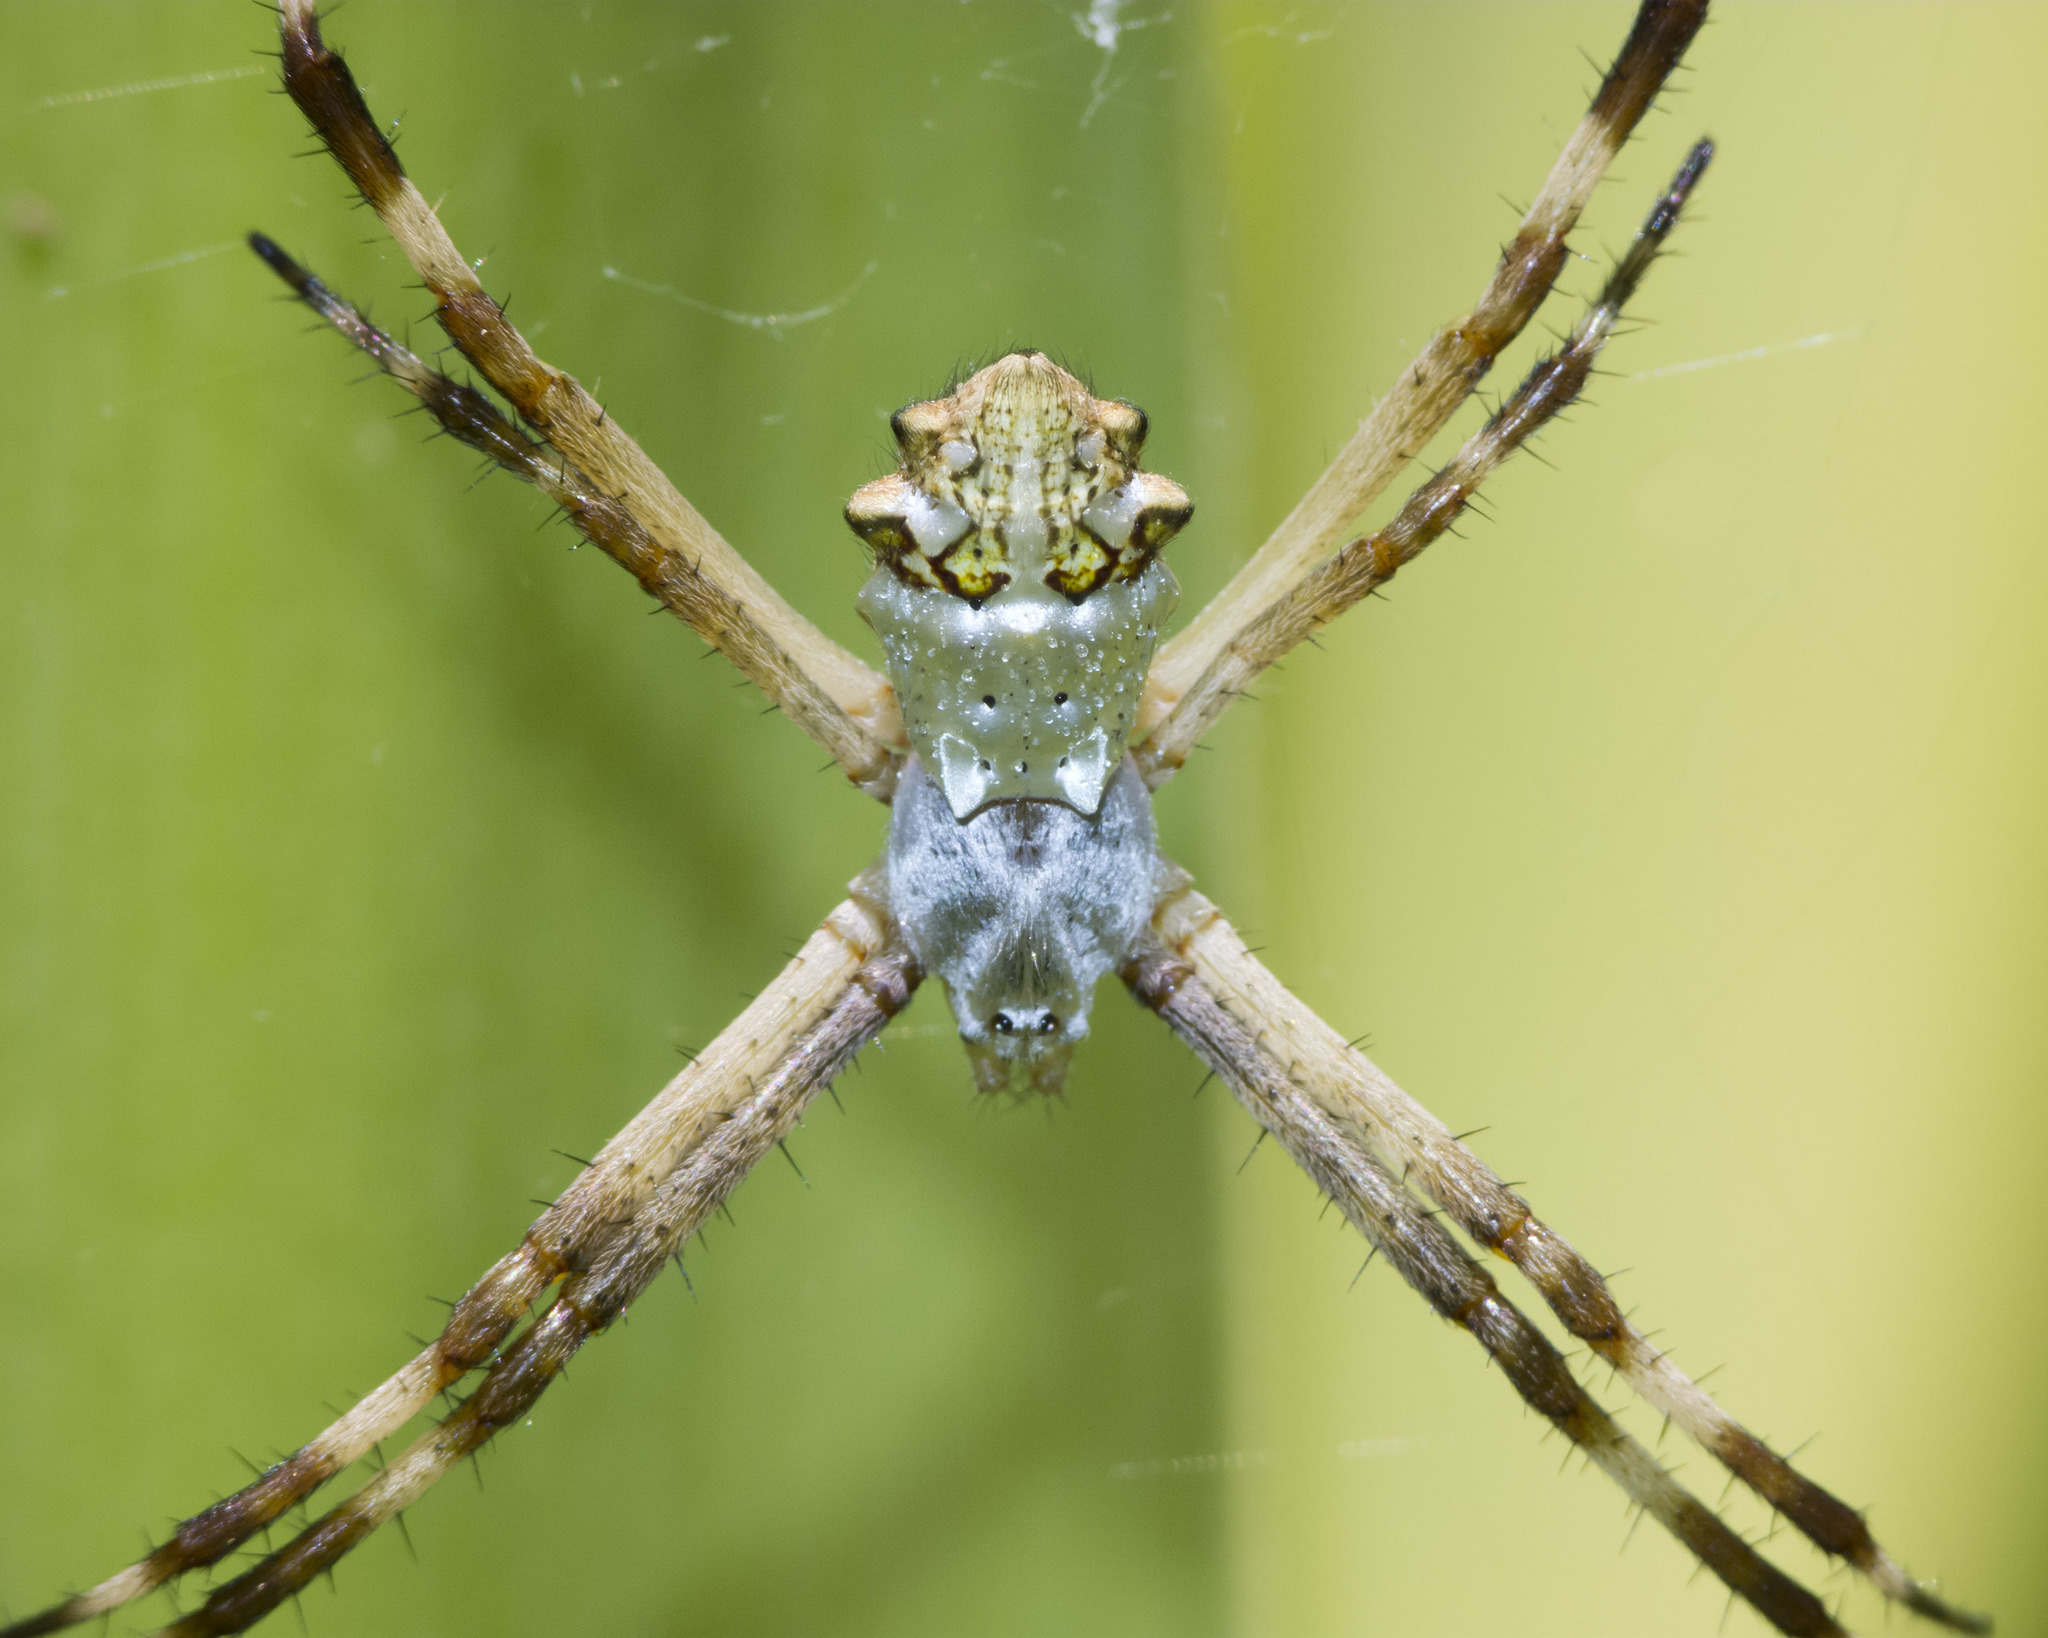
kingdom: Animalia
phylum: Arthropoda
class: Arachnida
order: Araneae
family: Araneidae
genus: Argiope
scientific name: Argiope argentata
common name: Orb weavers
